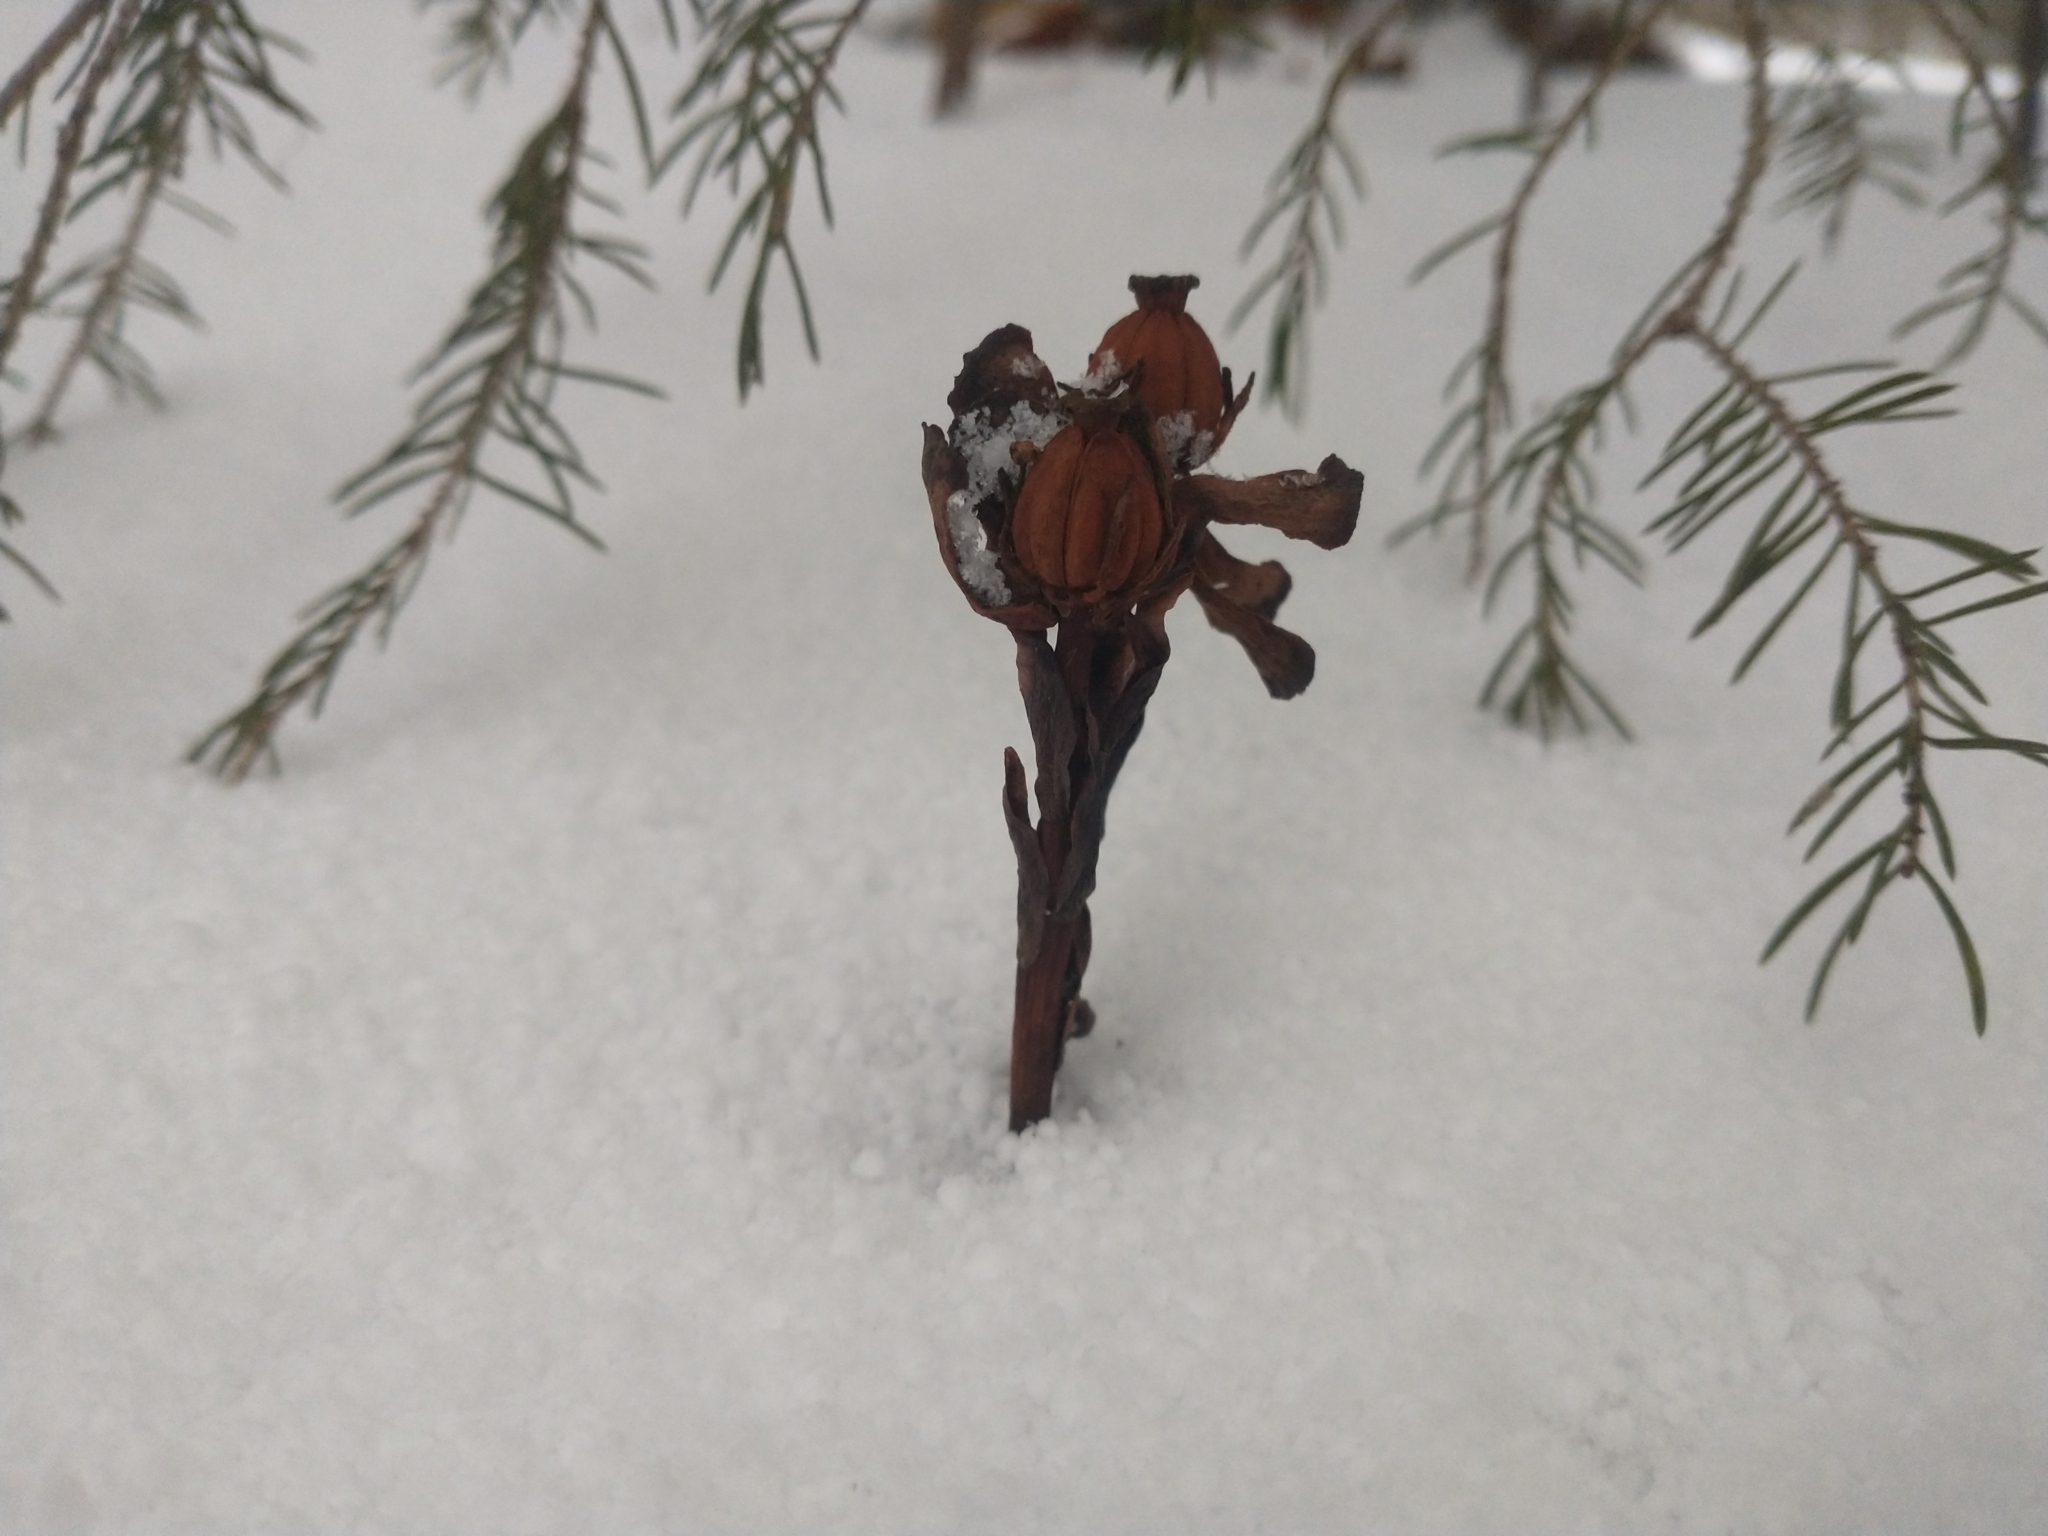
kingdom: Plantae
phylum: Tracheophyta
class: Magnoliopsida
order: Ericales
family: Ericaceae
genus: Monotropa
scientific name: Monotropa uniflora
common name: Convulsion root
